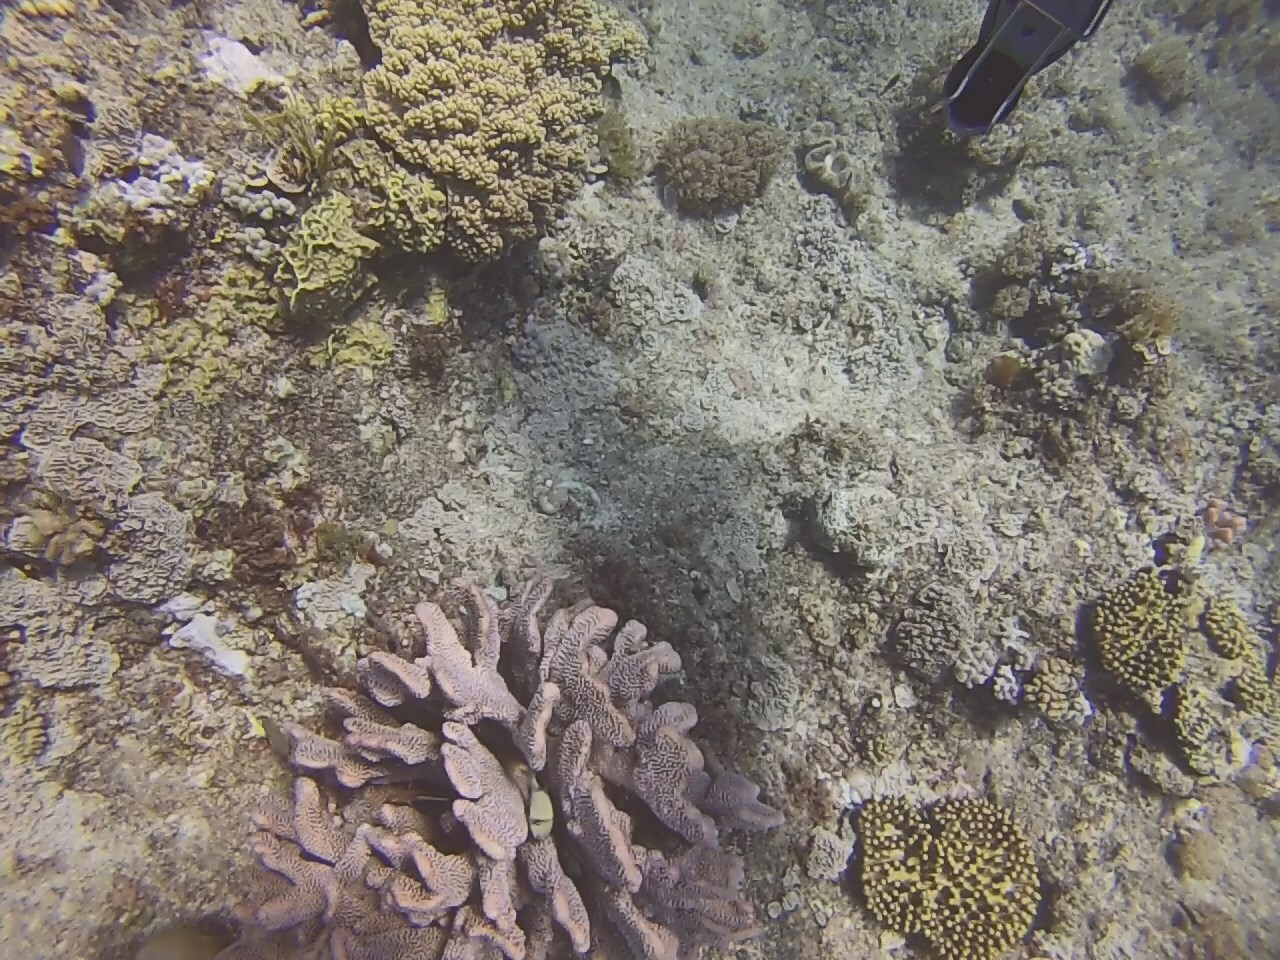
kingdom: Animalia
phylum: Chordata
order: Perciformes
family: Pomacentridae
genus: Dascyllus
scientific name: Dascyllus reticulatus
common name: Reticulated dascyllus
